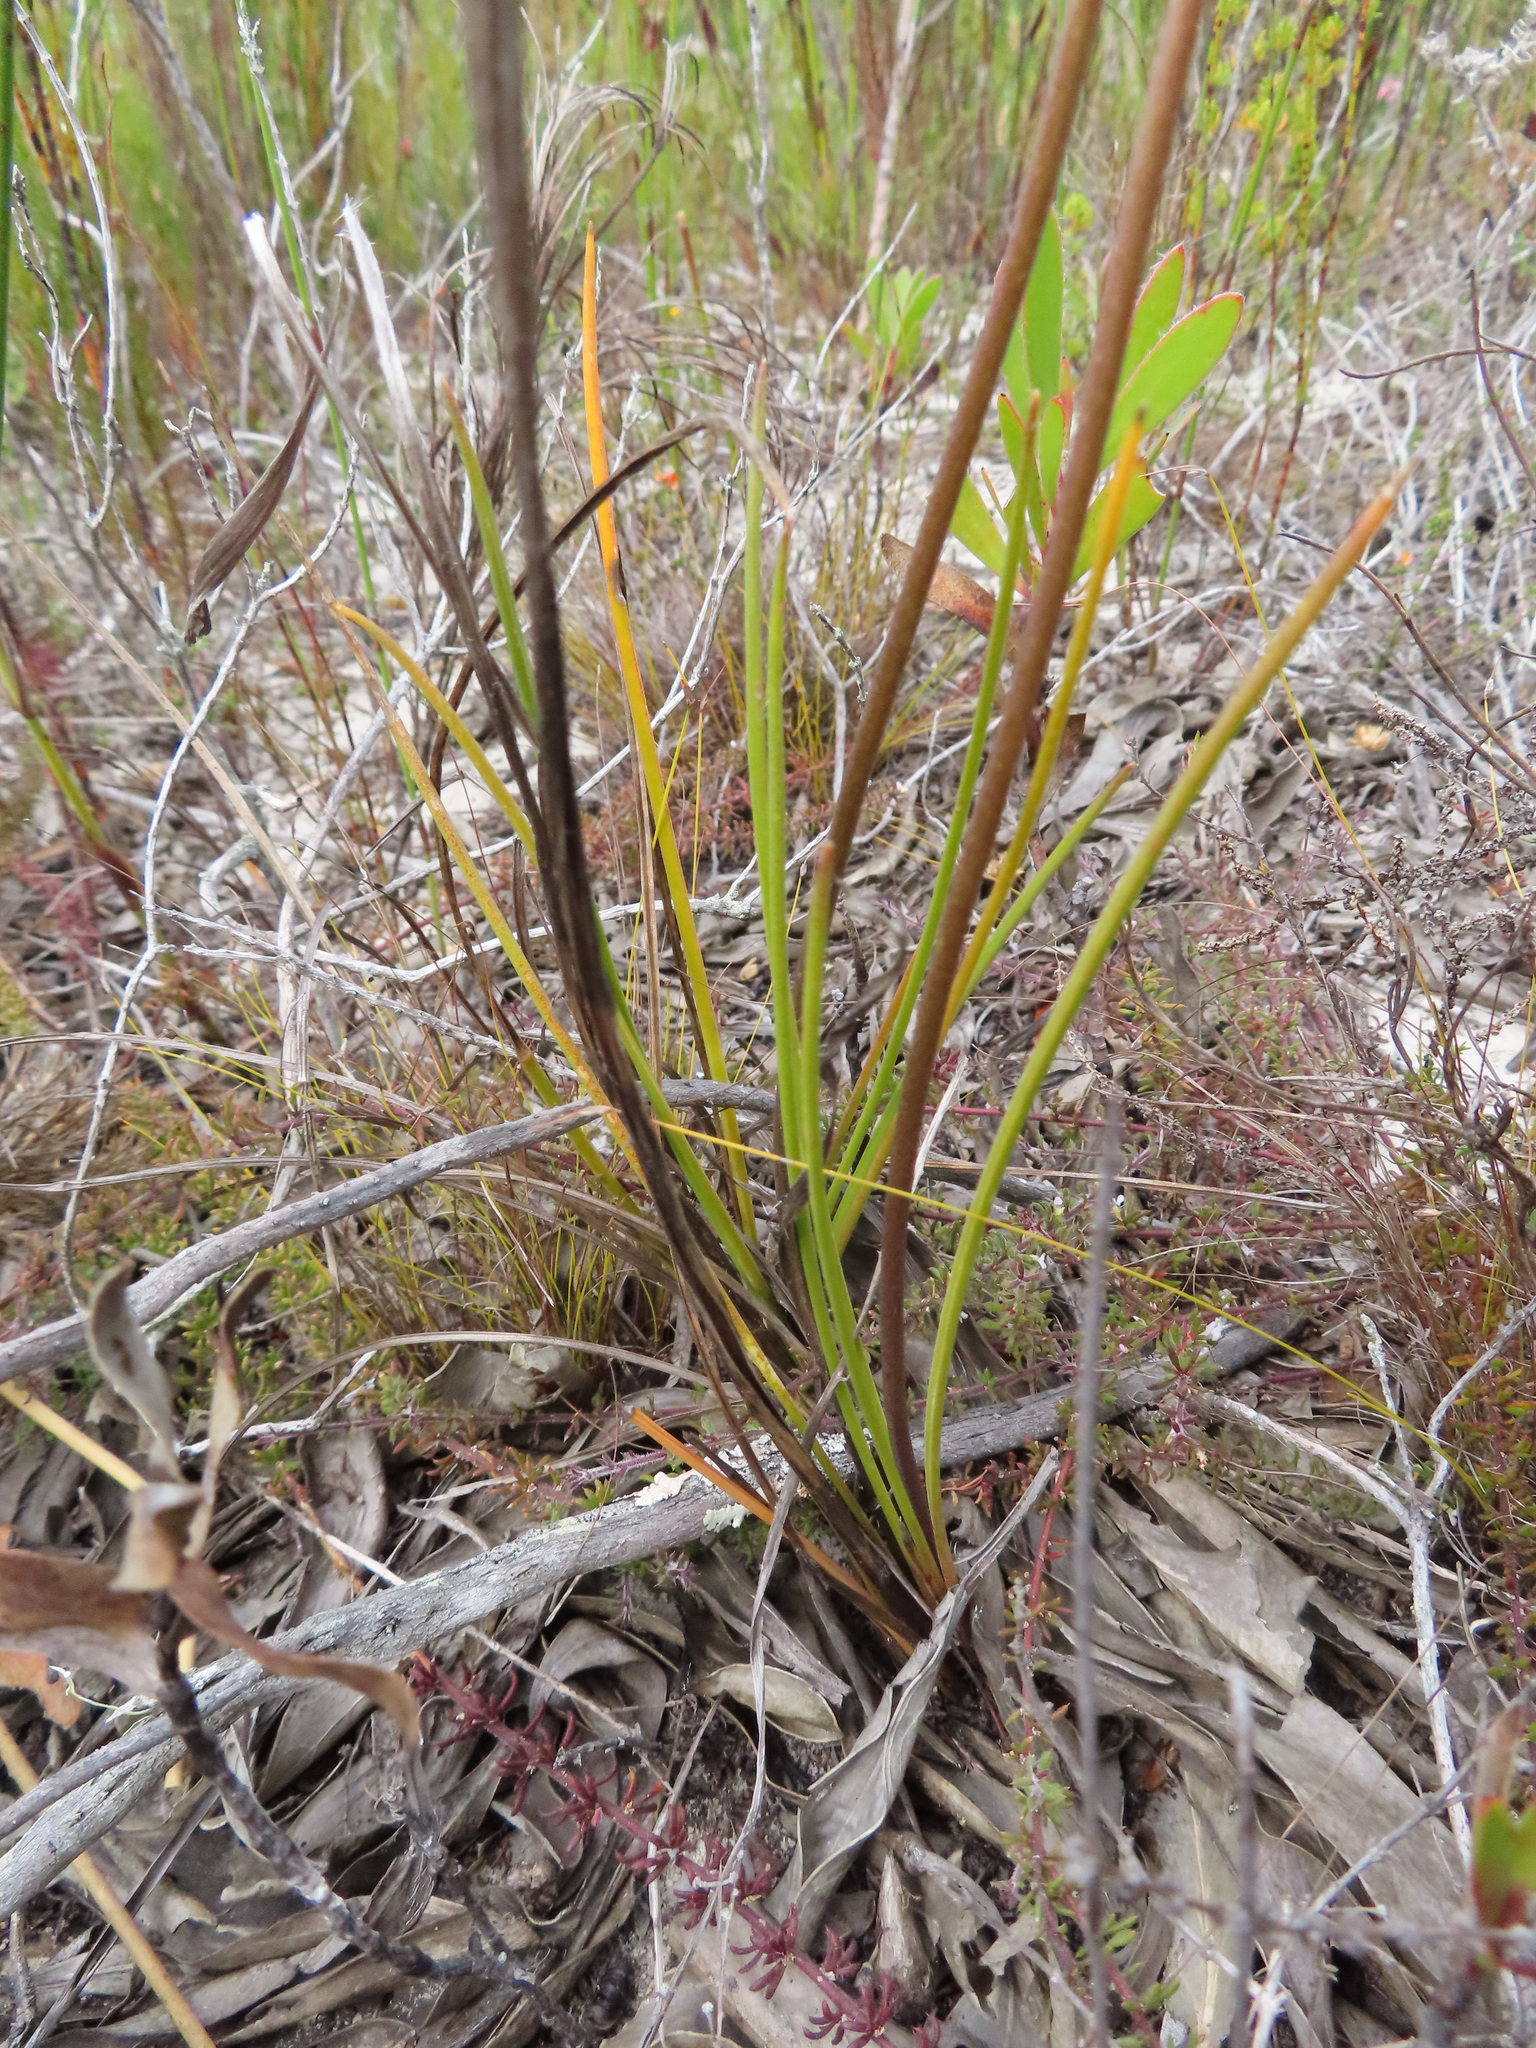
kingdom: Plantae
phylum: Tracheophyta
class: Liliopsida
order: Asparagales
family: Asparagaceae
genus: Drimia
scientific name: Drimia media
